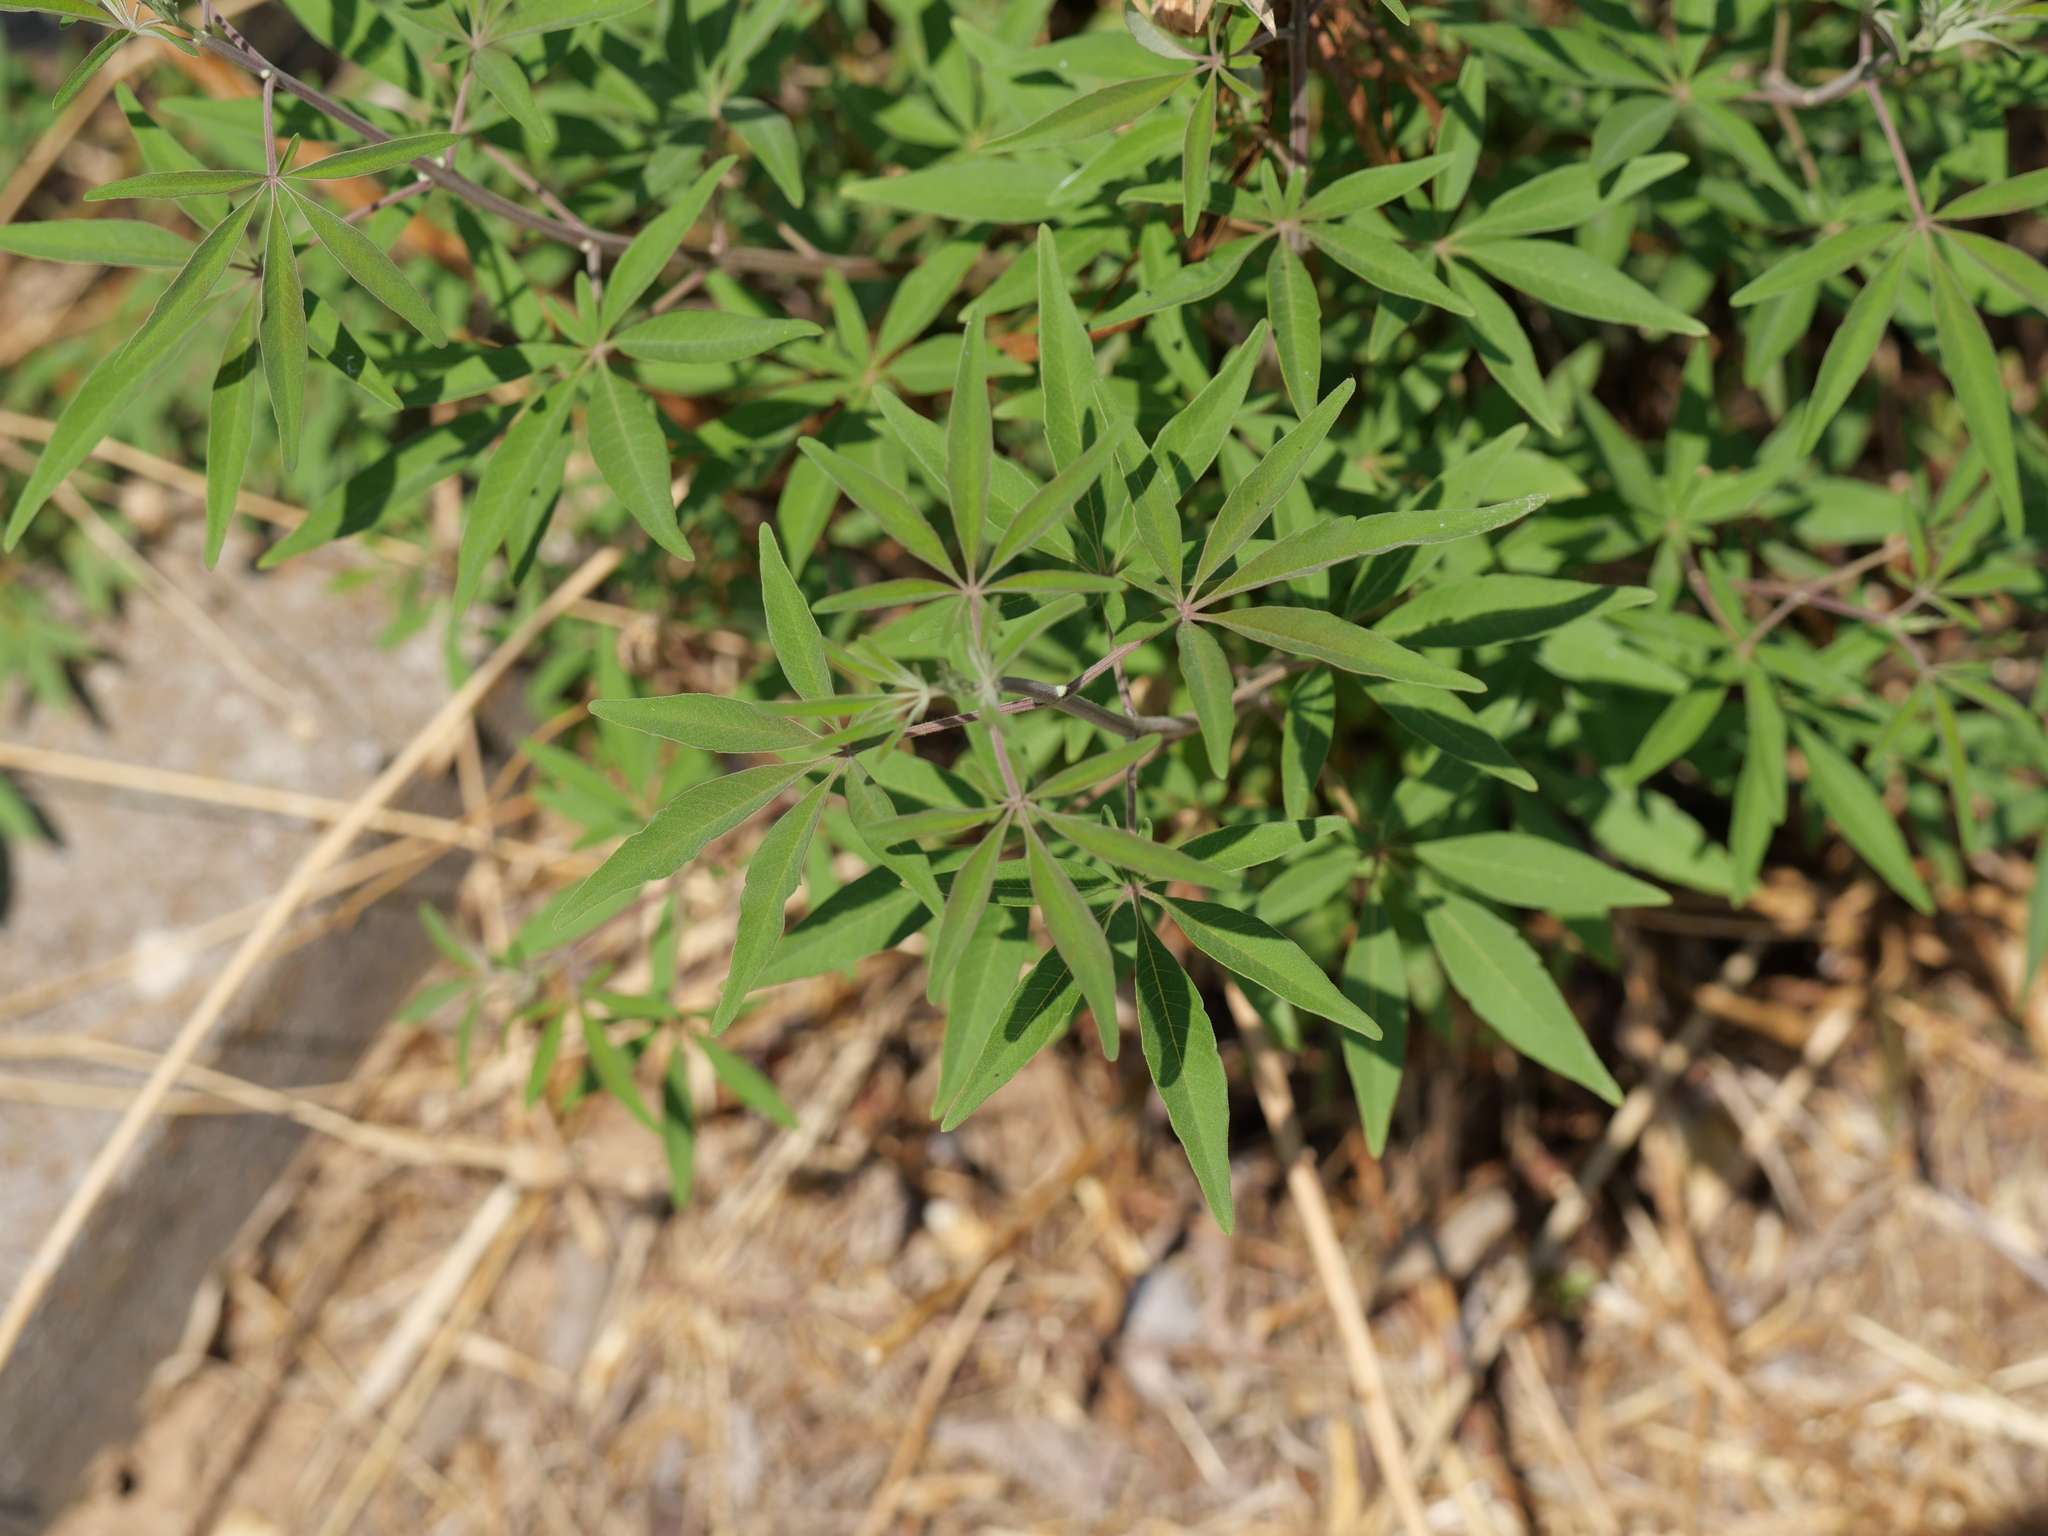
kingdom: Plantae
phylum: Tracheophyta
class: Magnoliopsida
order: Lamiales
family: Lamiaceae
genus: Vitex
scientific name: Vitex agnus-castus
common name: Chasteberry
